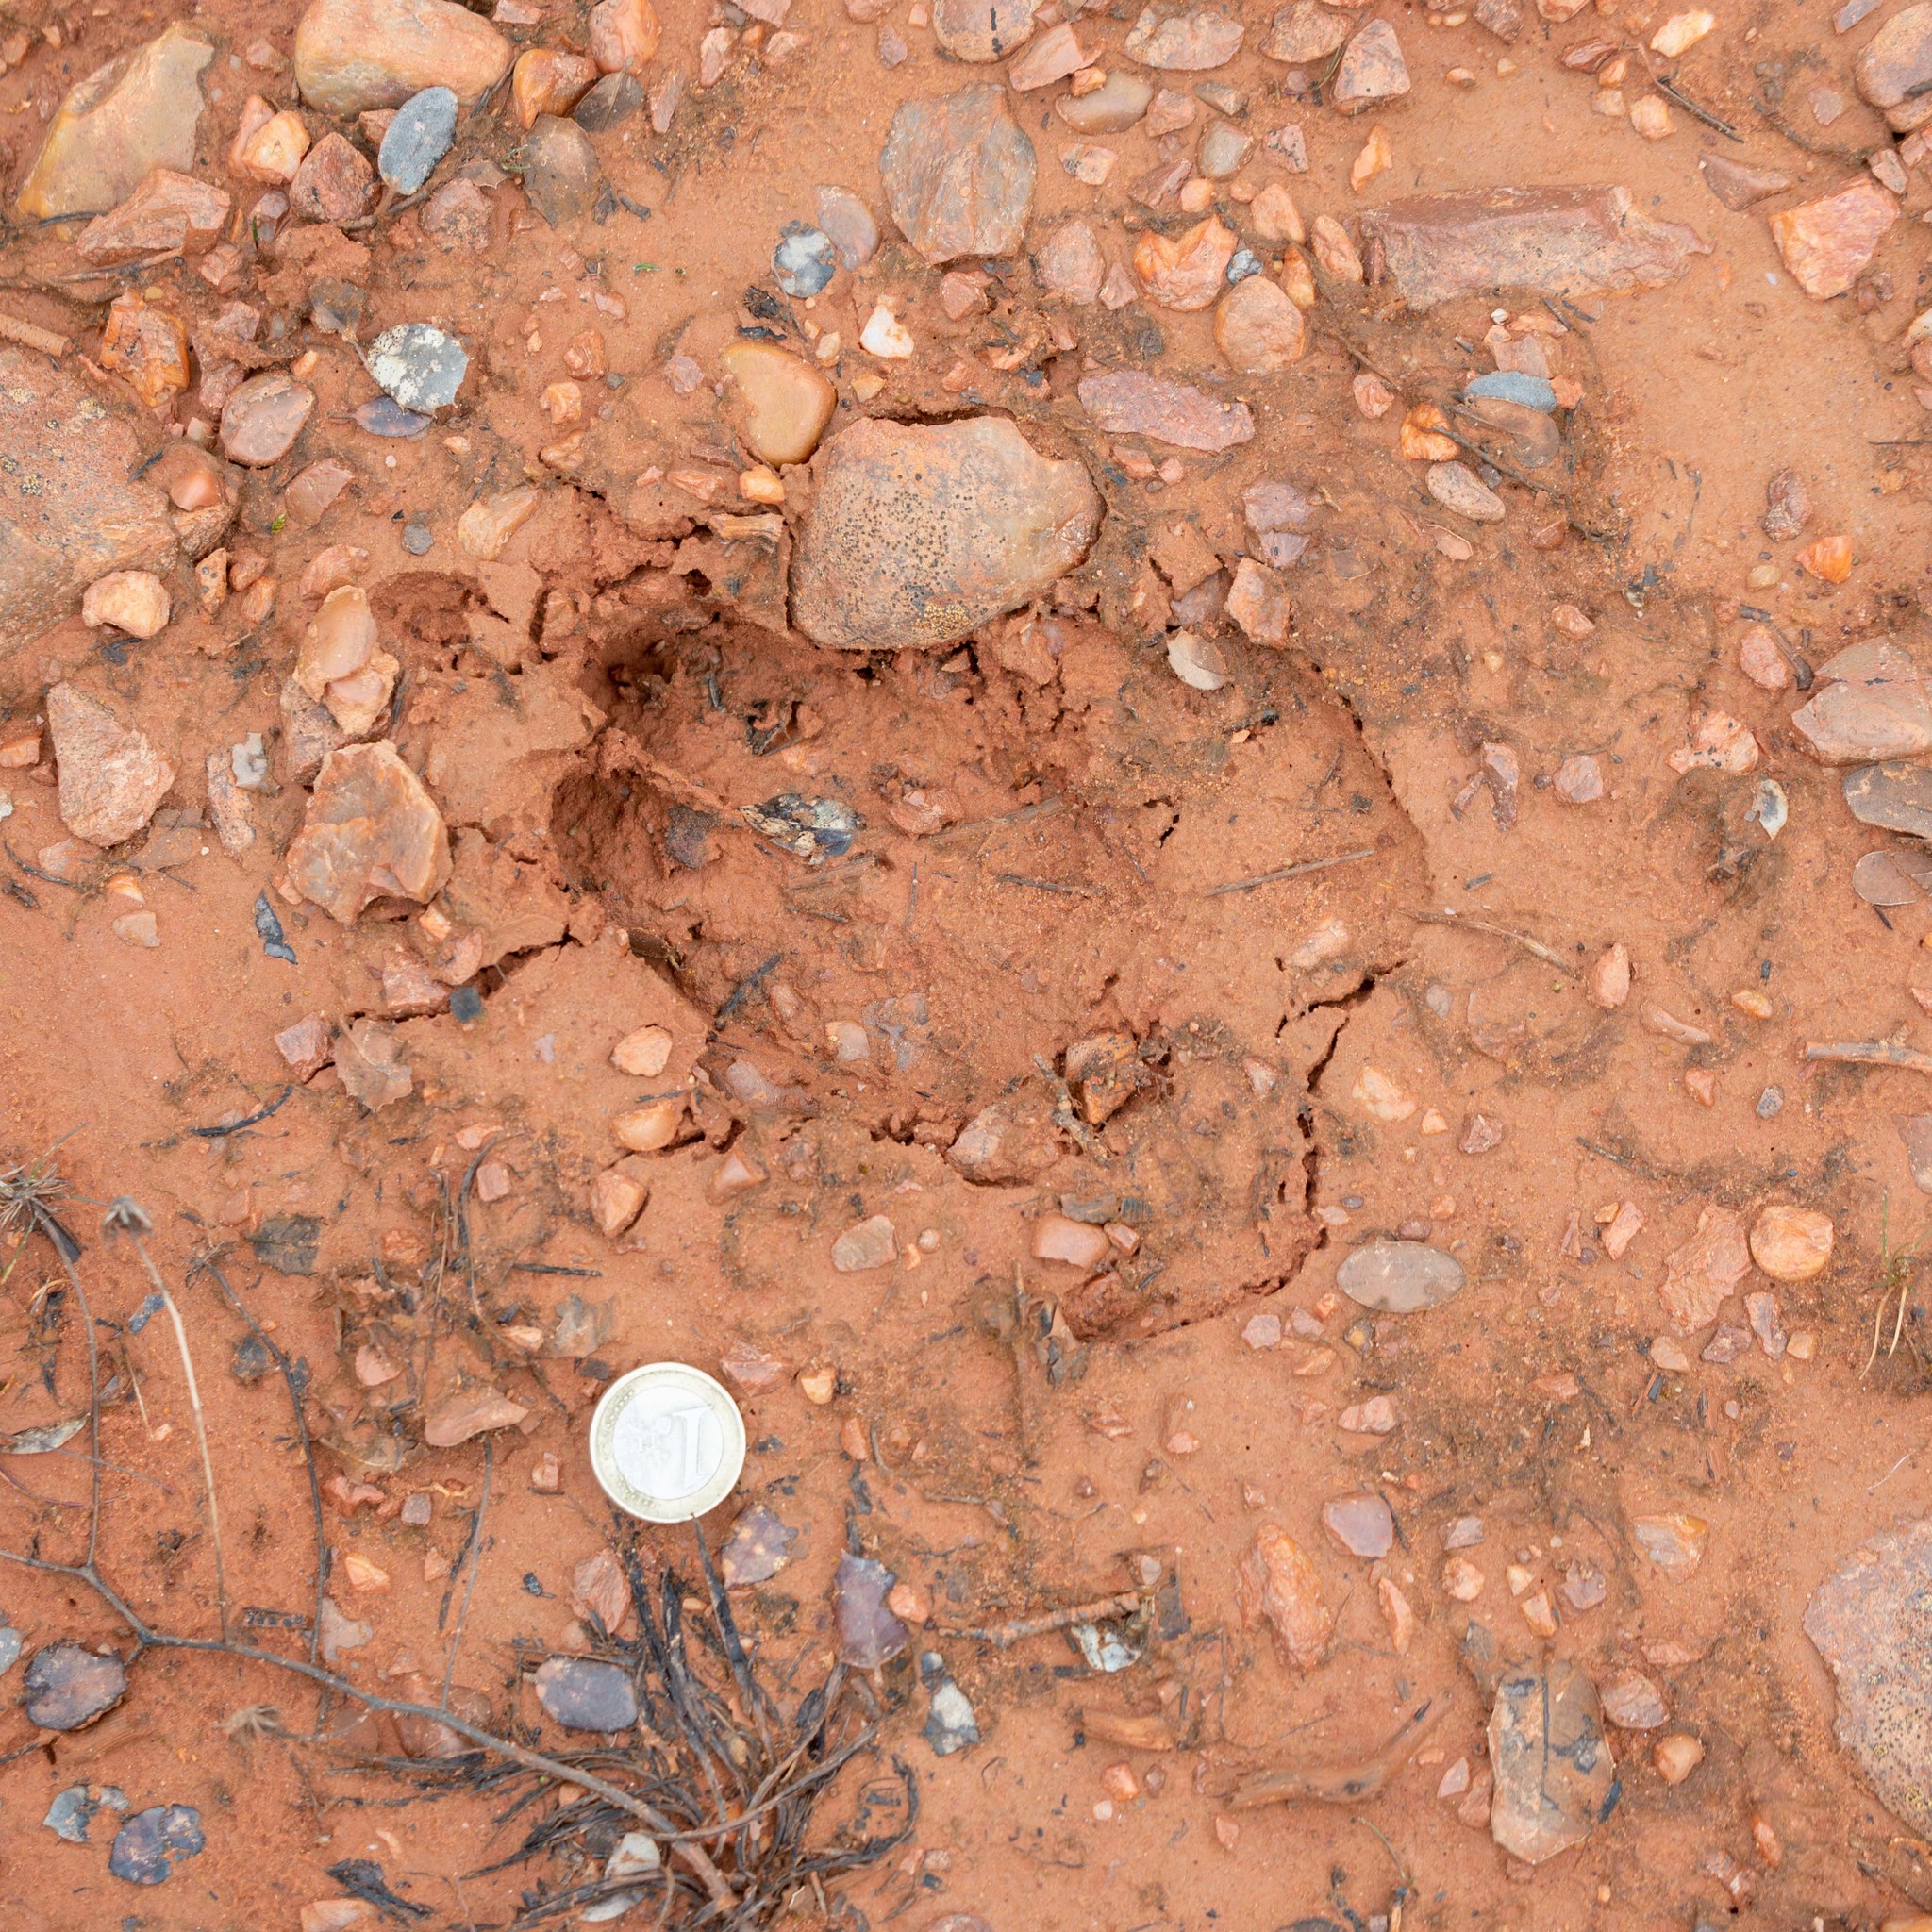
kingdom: Animalia
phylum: Chordata
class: Mammalia
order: Artiodactyla
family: Suidae
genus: Sus
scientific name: Sus scrofa
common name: Wild boar
